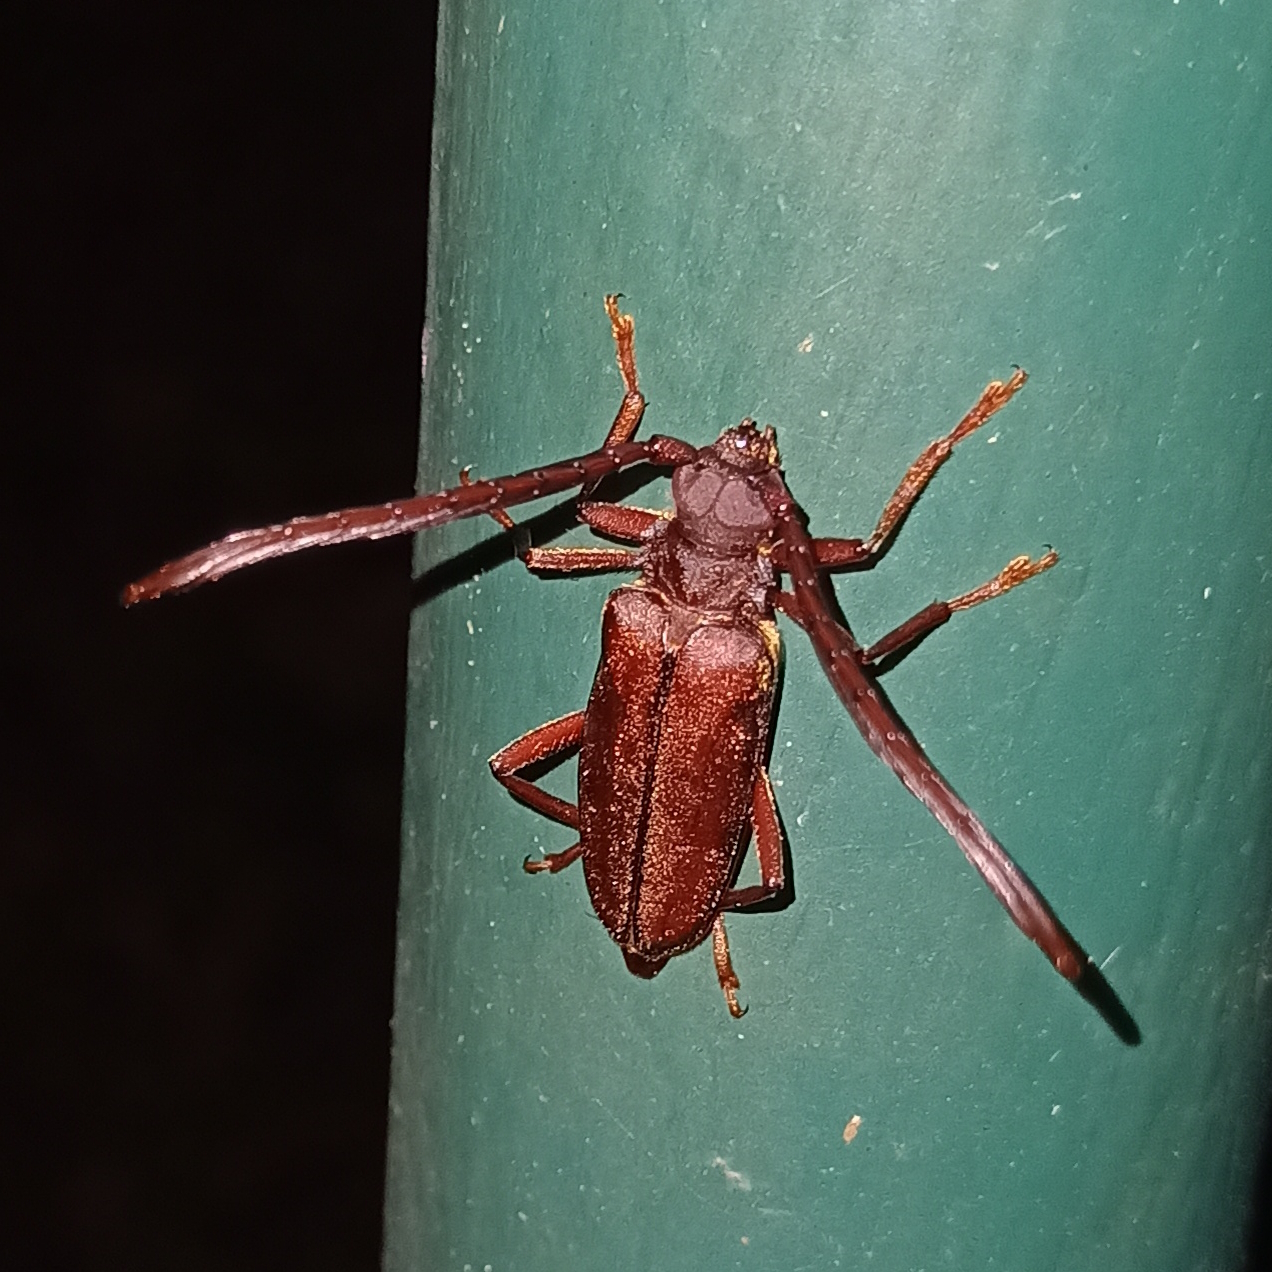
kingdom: Animalia
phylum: Arthropoda
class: Insecta
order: Coleoptera
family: Cerambycidae
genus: Polyoza
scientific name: Polyoza lacordairei
